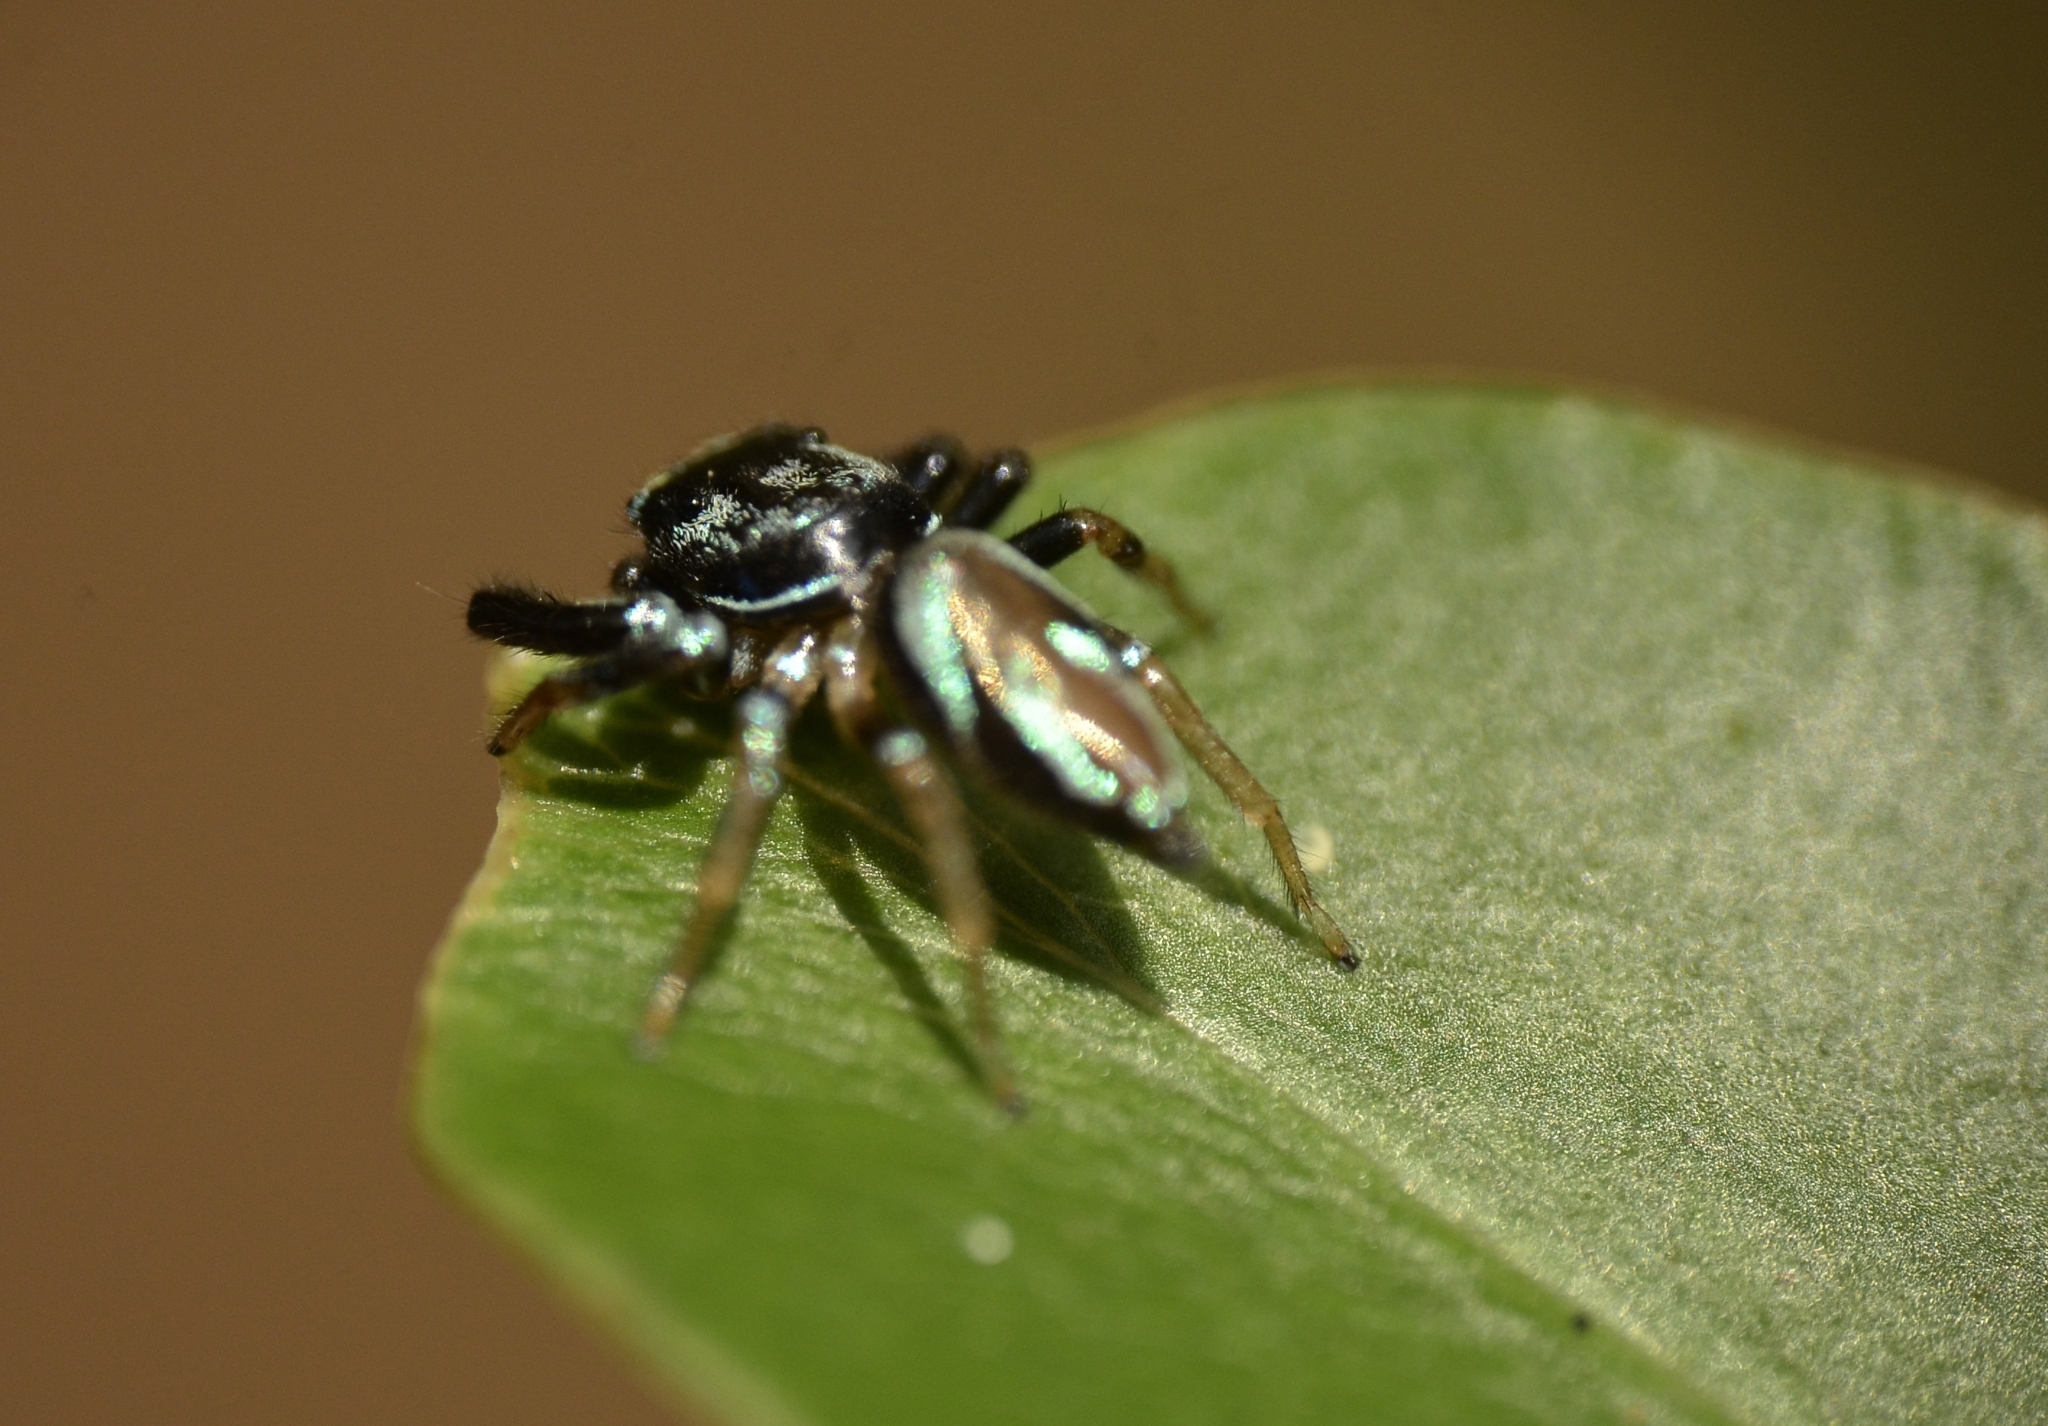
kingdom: Animalia
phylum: Arthropoda
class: Arachnida
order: Araneae
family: Salticidae
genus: Thiania
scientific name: Thiania bhamoensis
